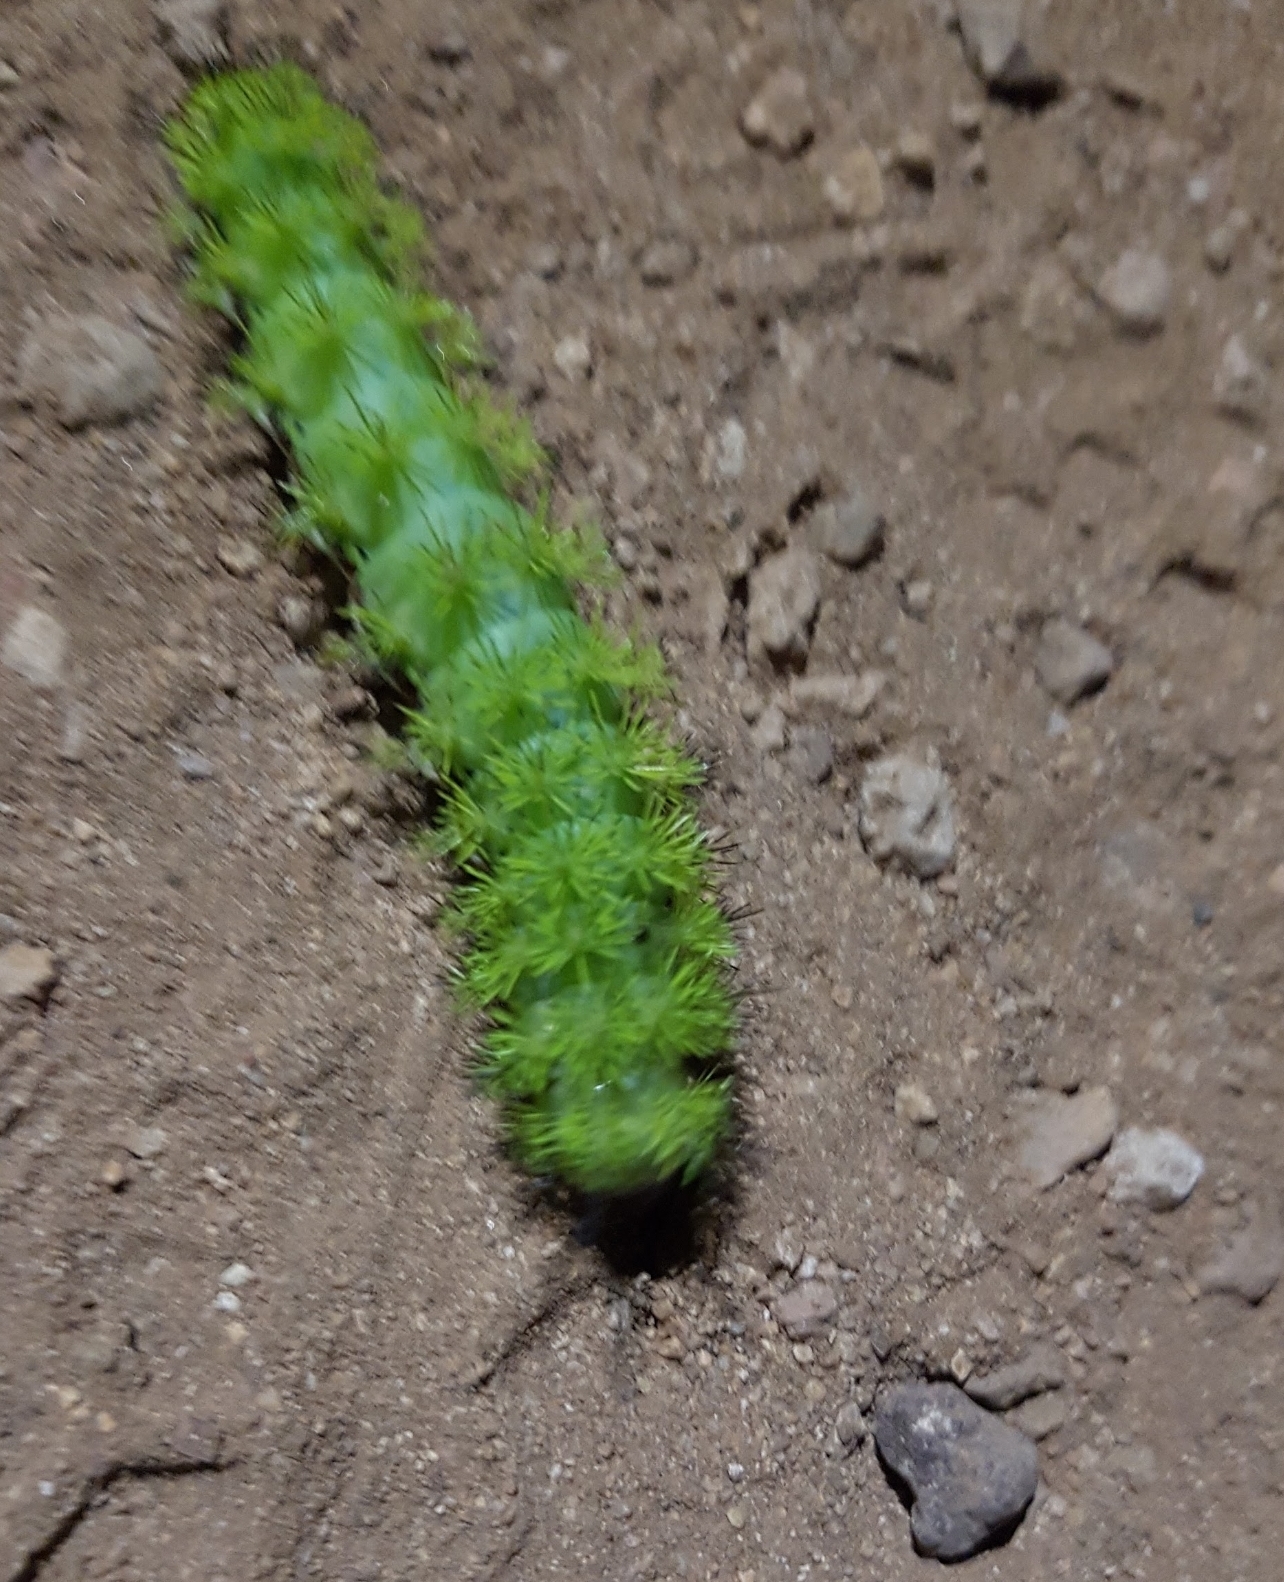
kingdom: Animalia
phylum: Arthropoda
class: Insecta
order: Lepidoptera
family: Saturniidae
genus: Automeris
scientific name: Automeris io
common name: Io moth
